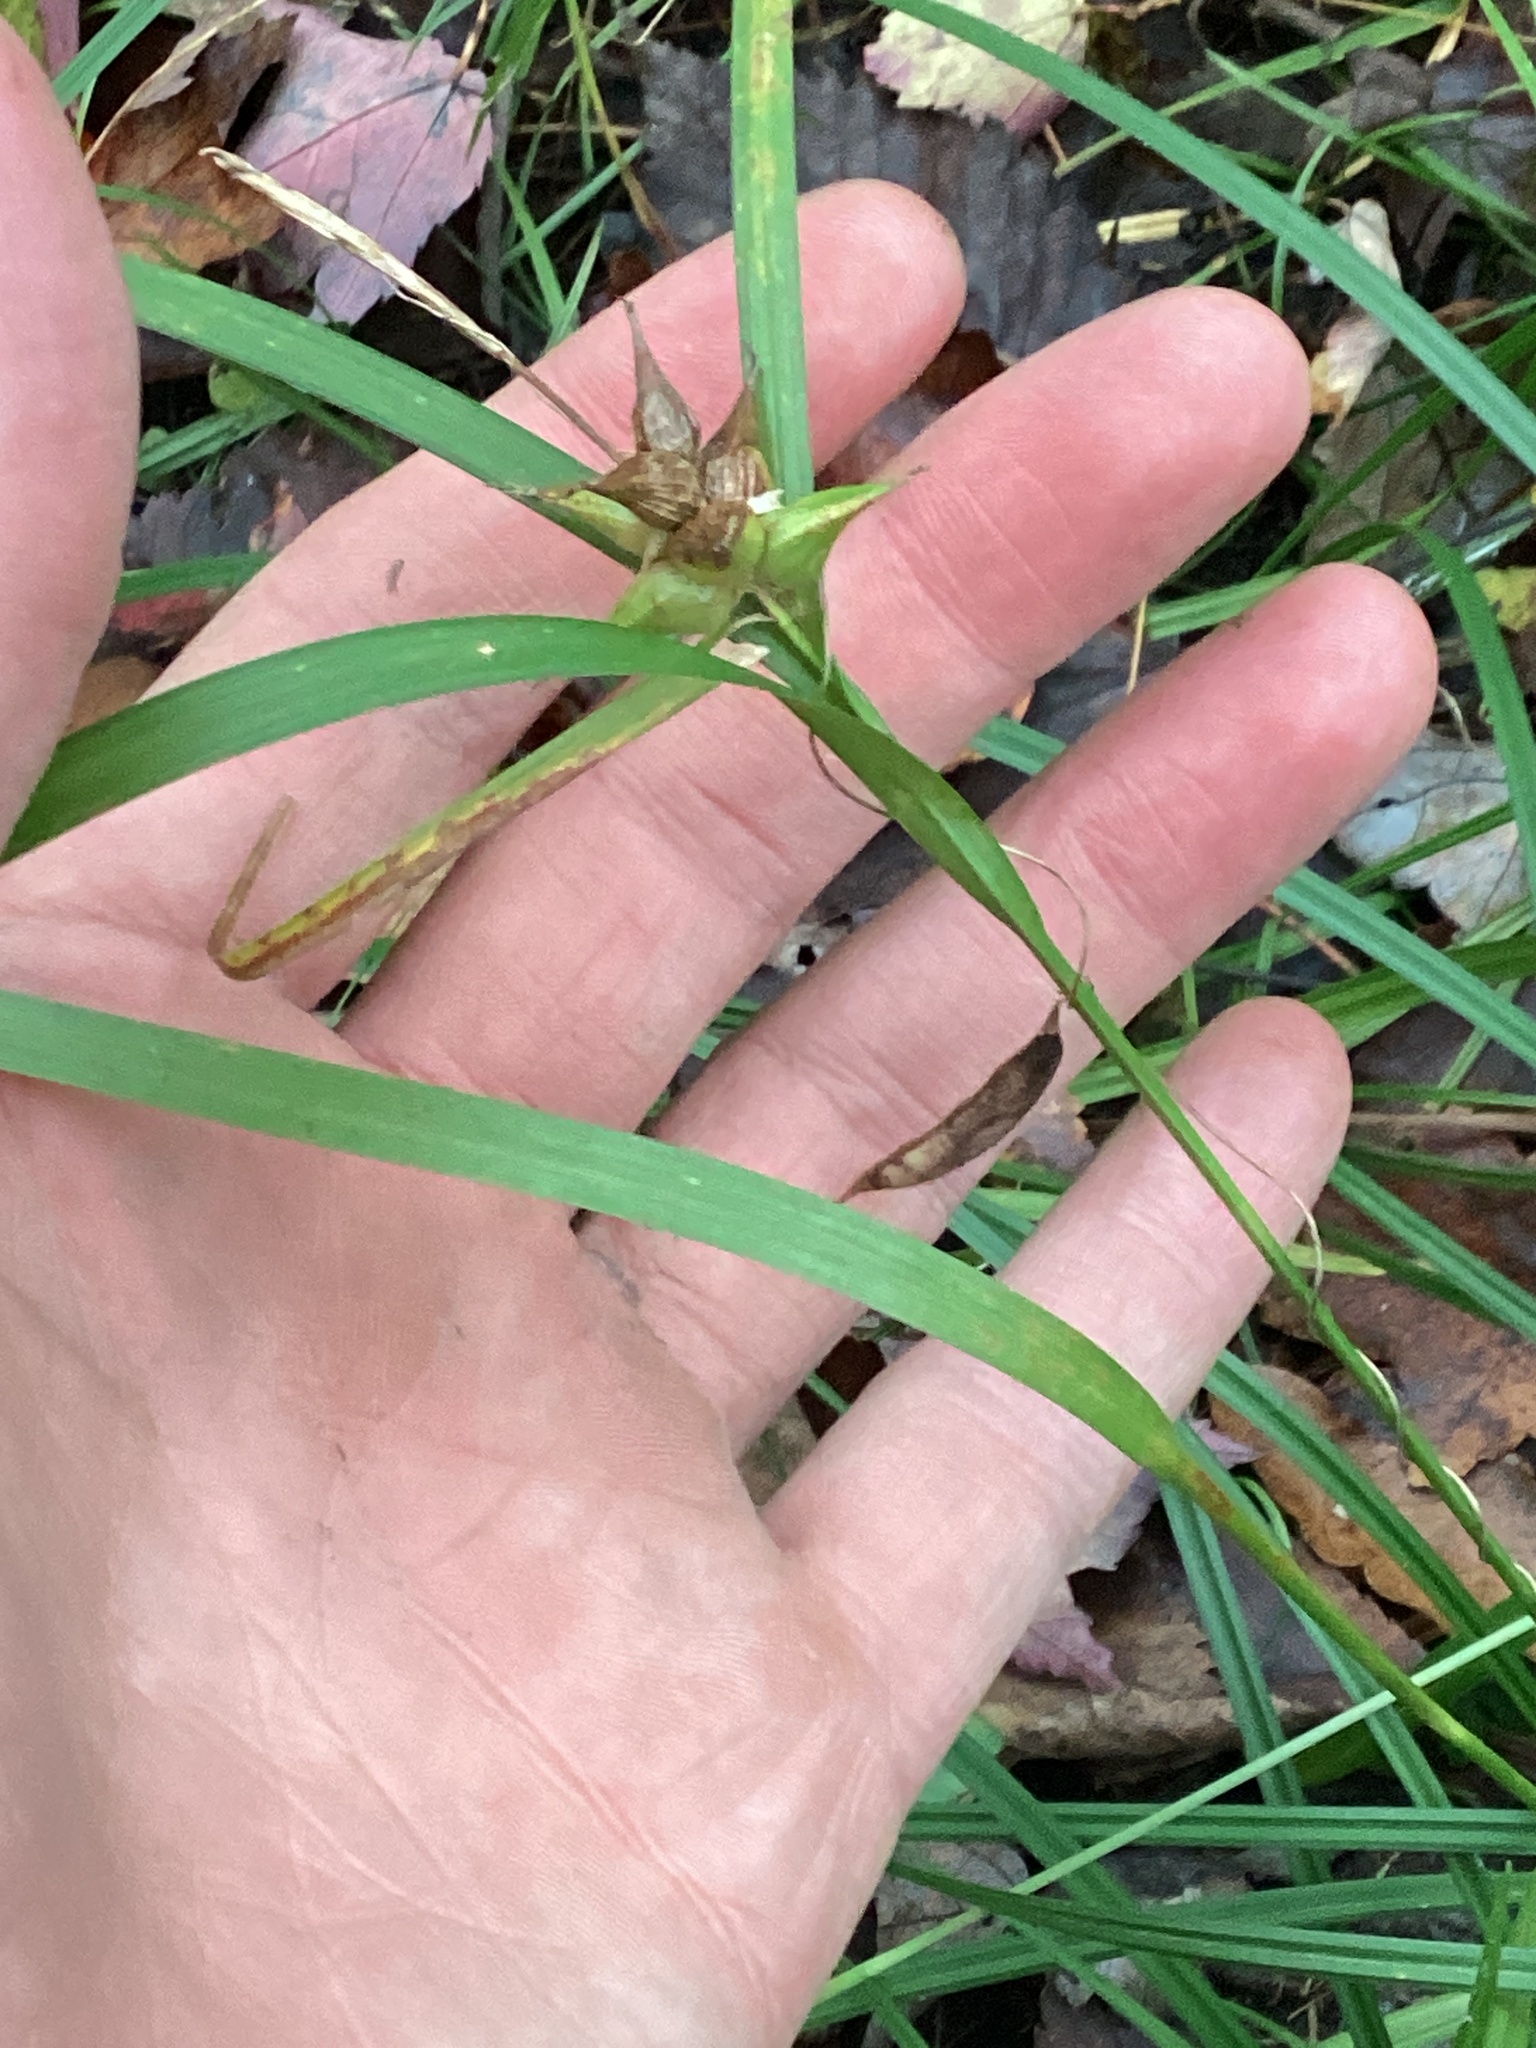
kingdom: Plantae
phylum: Tracheophyta
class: Liliopsida
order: Poales
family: Cyperaceae
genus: Carex
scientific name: Carex intumescens
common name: Greater bladder sedge
